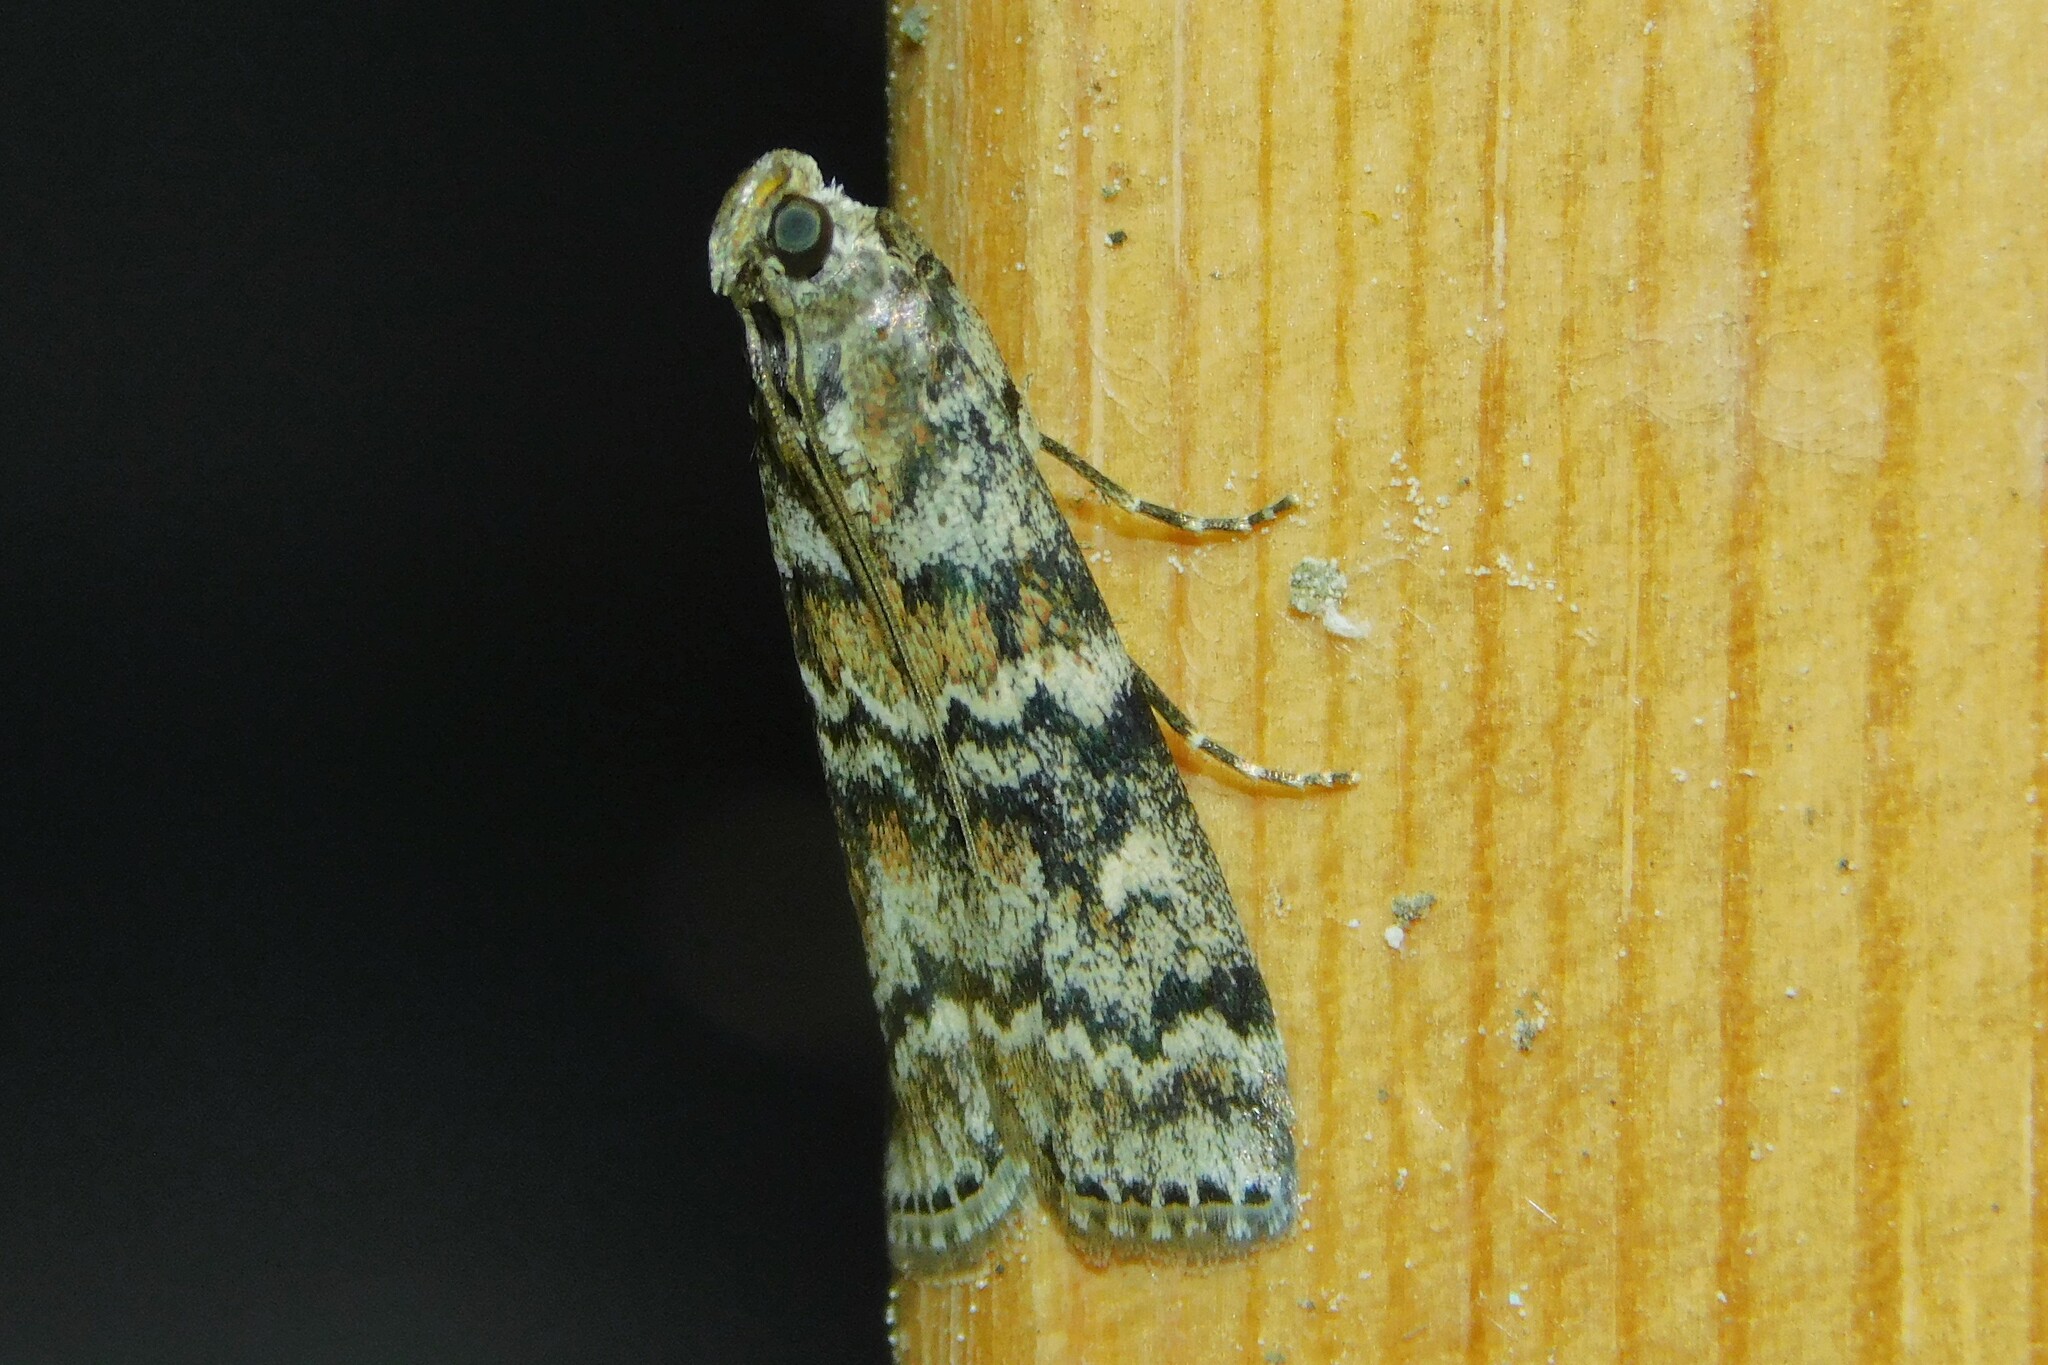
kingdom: Animalia
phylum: Arthropoda
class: Insecta
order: Lepidoptera
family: Pyralidae
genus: Dioryctria
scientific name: Dioryctria abietella
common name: Dark pine knot-horn
